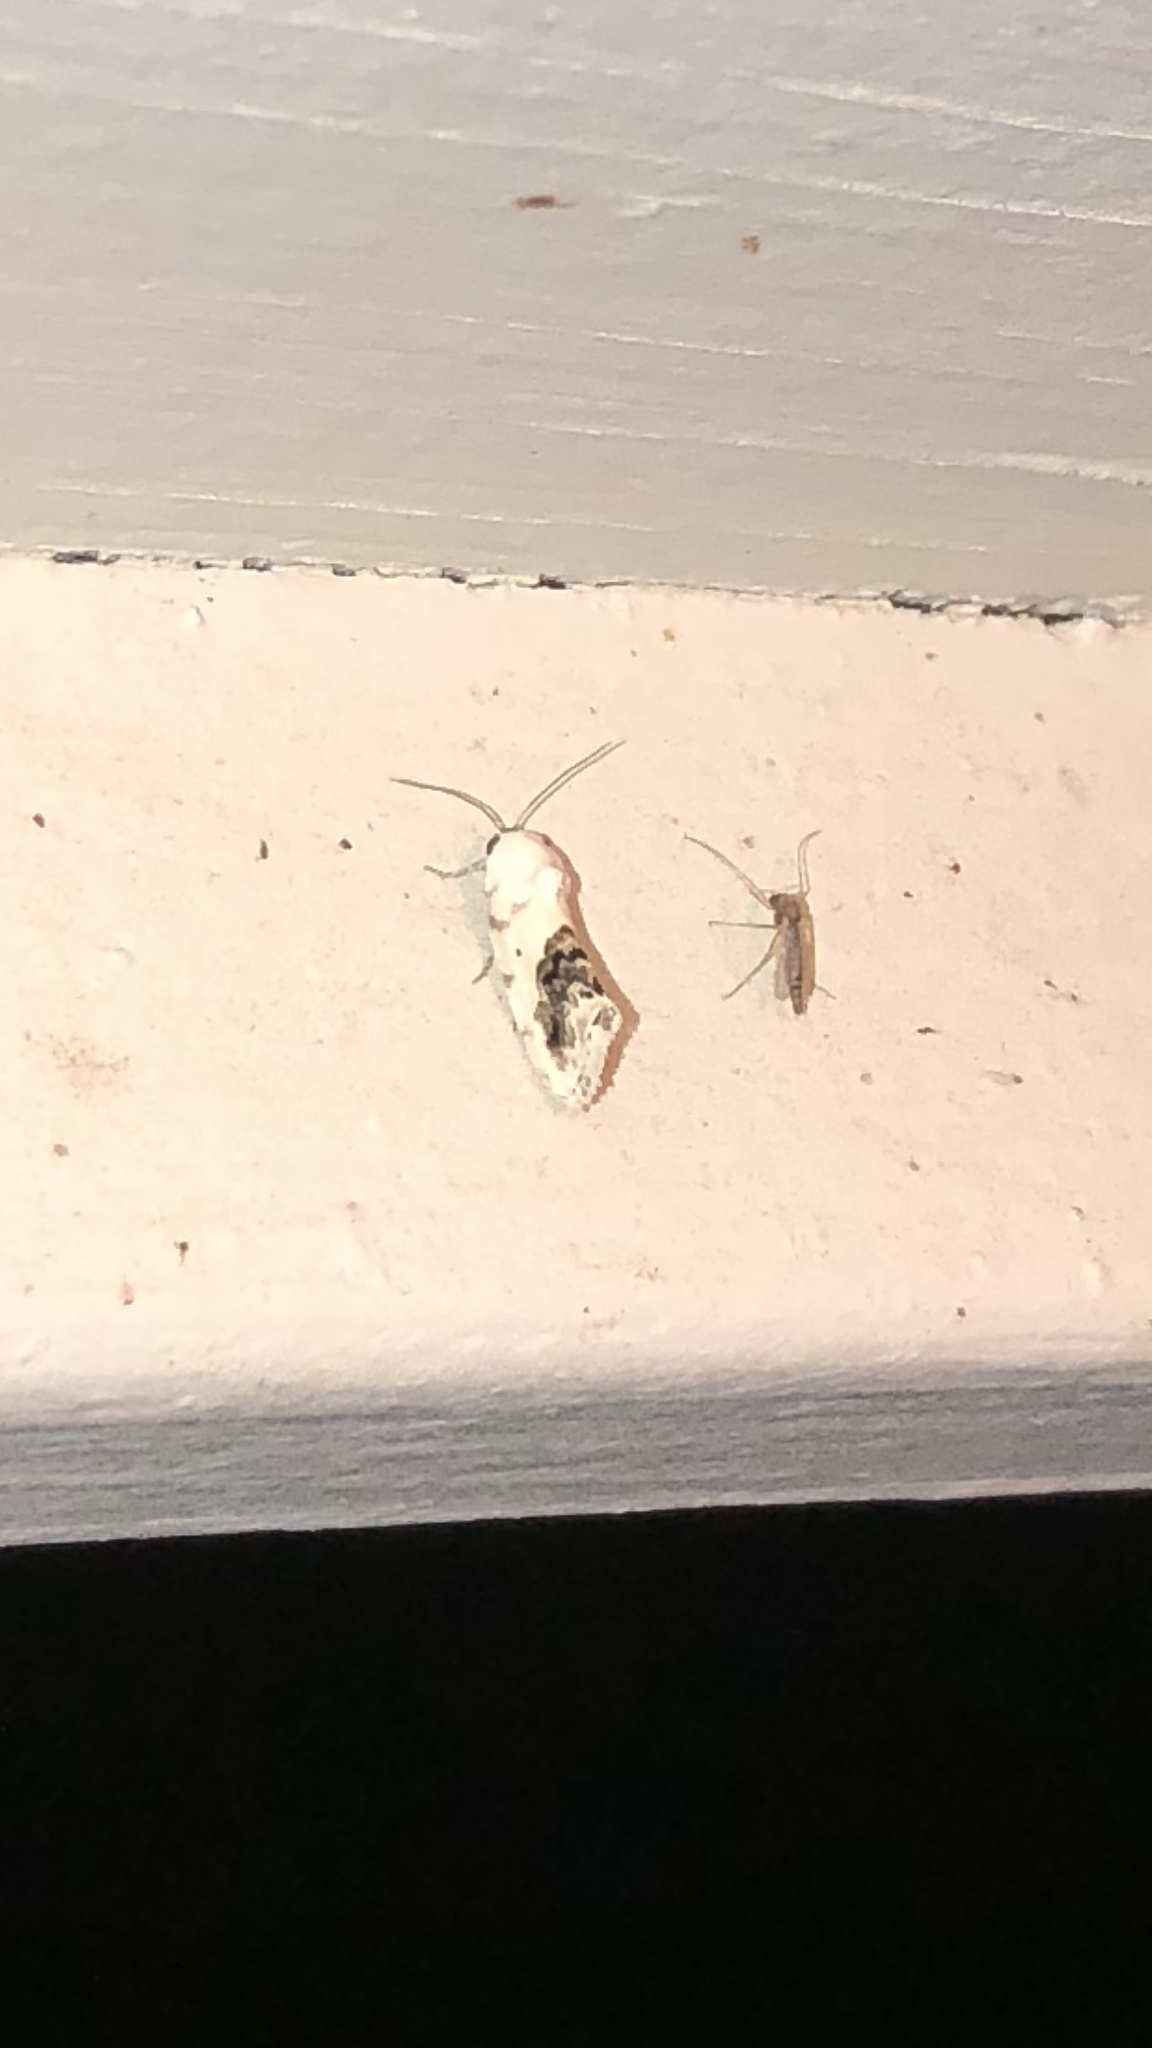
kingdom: Animalia
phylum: Arthropoda
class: Insecta
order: Lepidoptera
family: Noctuidae
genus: Acontia
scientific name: Acontia erastrioides
